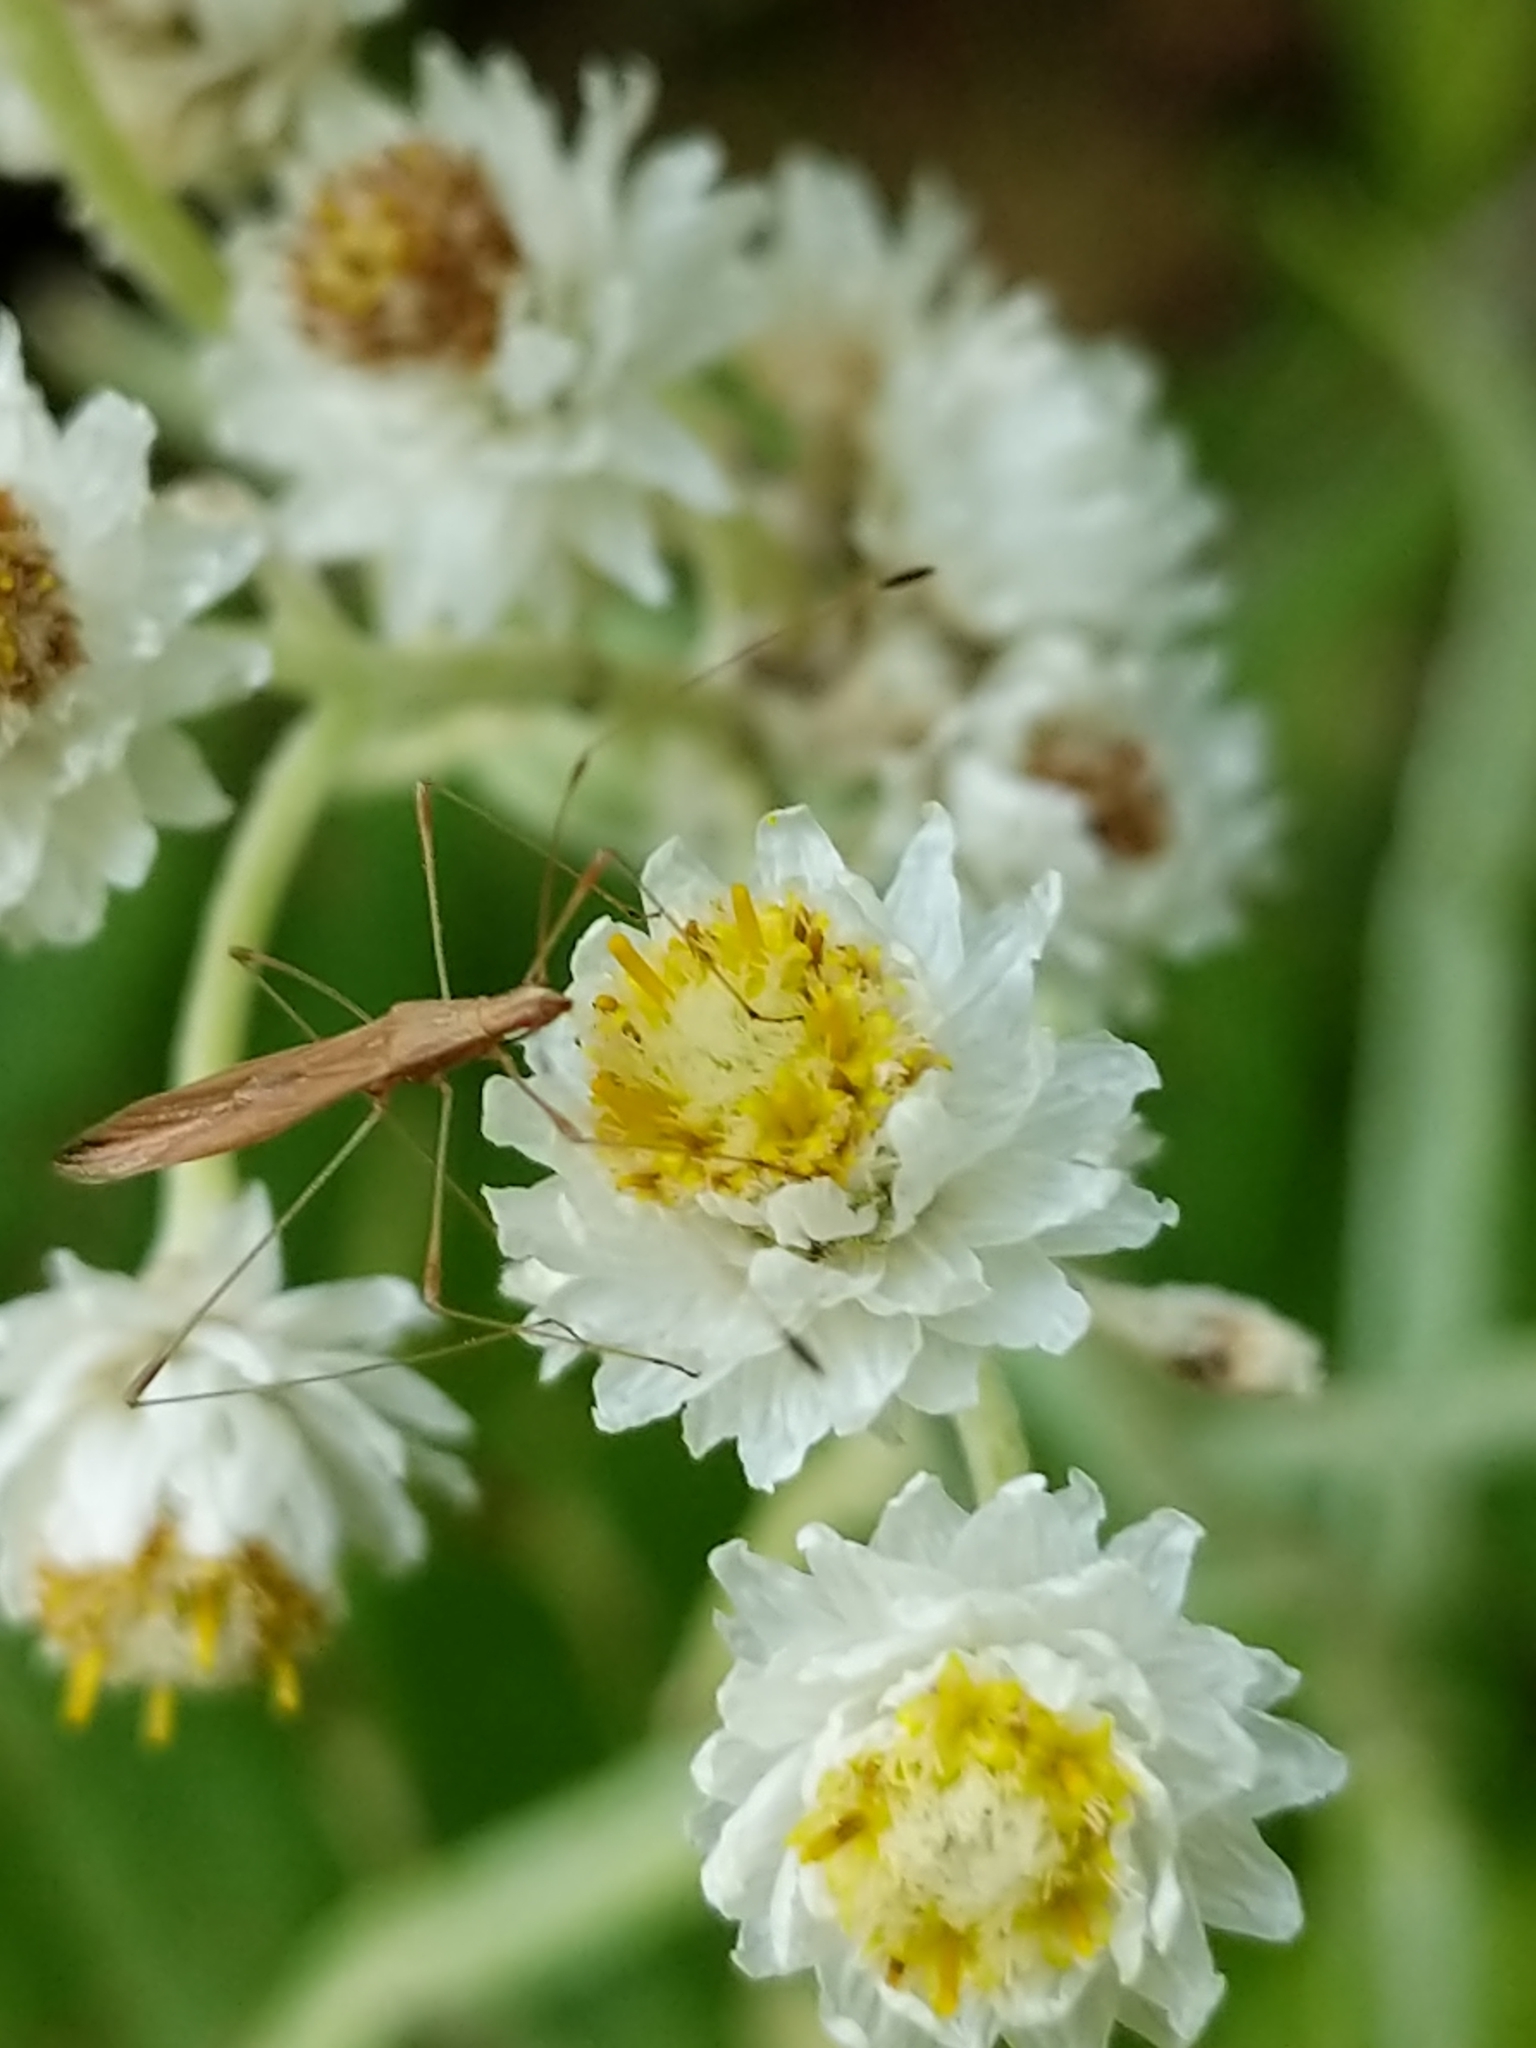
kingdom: Animalia
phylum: Arthropoda
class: Insecta
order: Hemiptera
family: Berytidae
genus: Jalysus
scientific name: Jalysus
